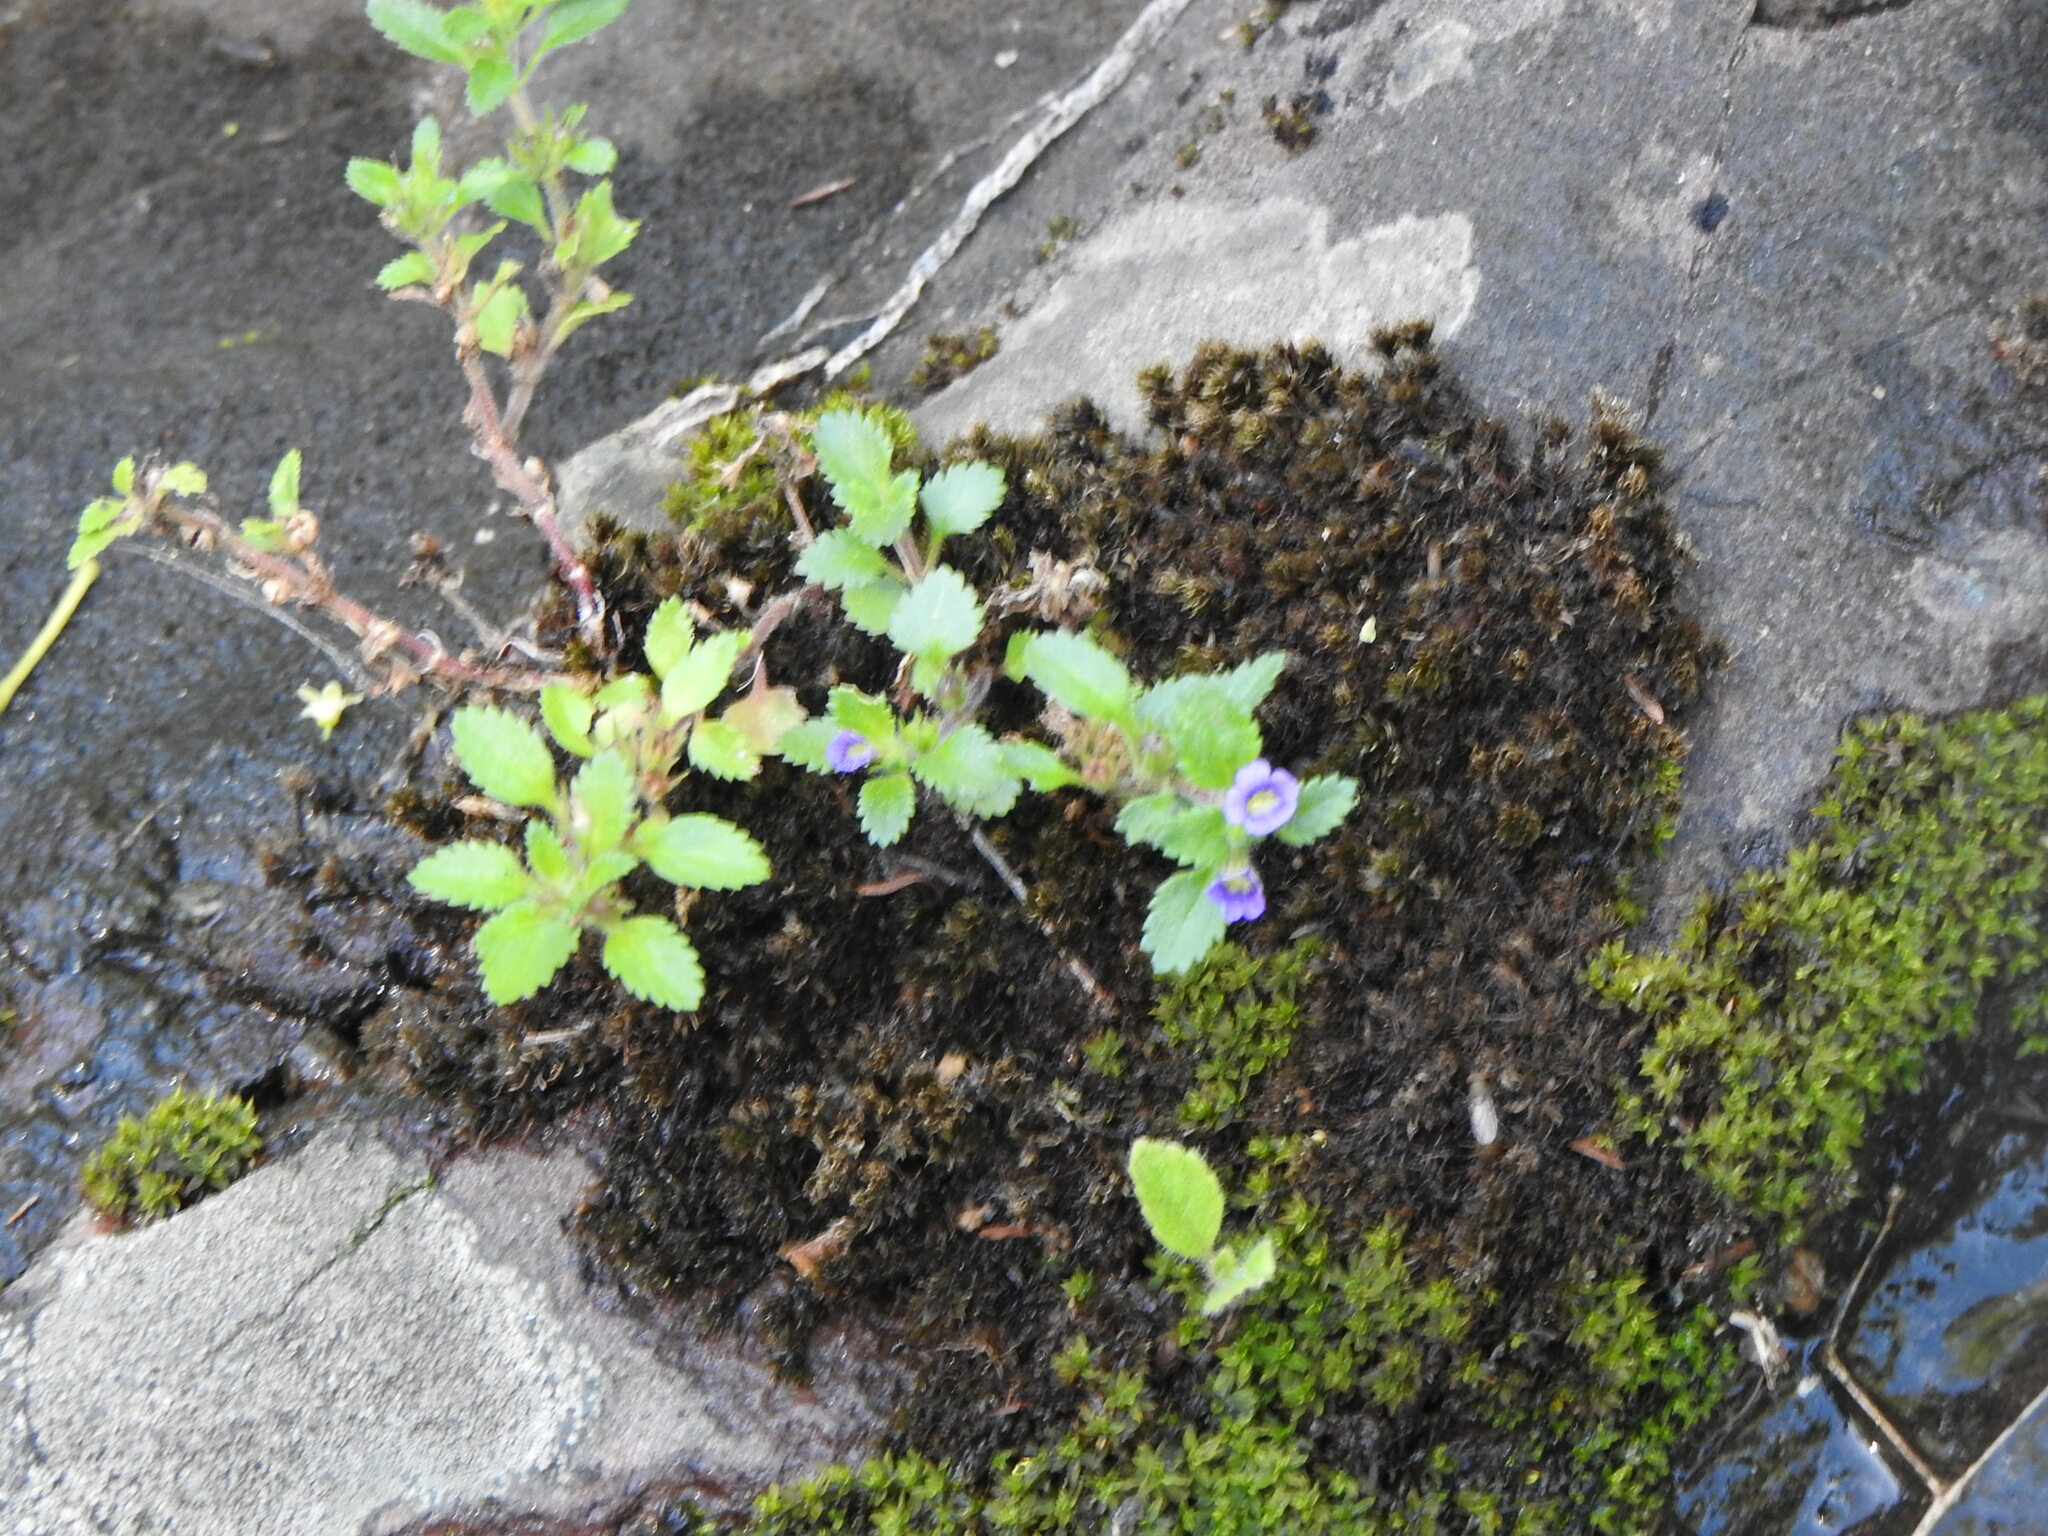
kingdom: Plantae
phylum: Tracheophyta
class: Magnoliopsida
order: Lamiales
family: Plantaginaceae
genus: Stemodia
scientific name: Stemodia verticillata
